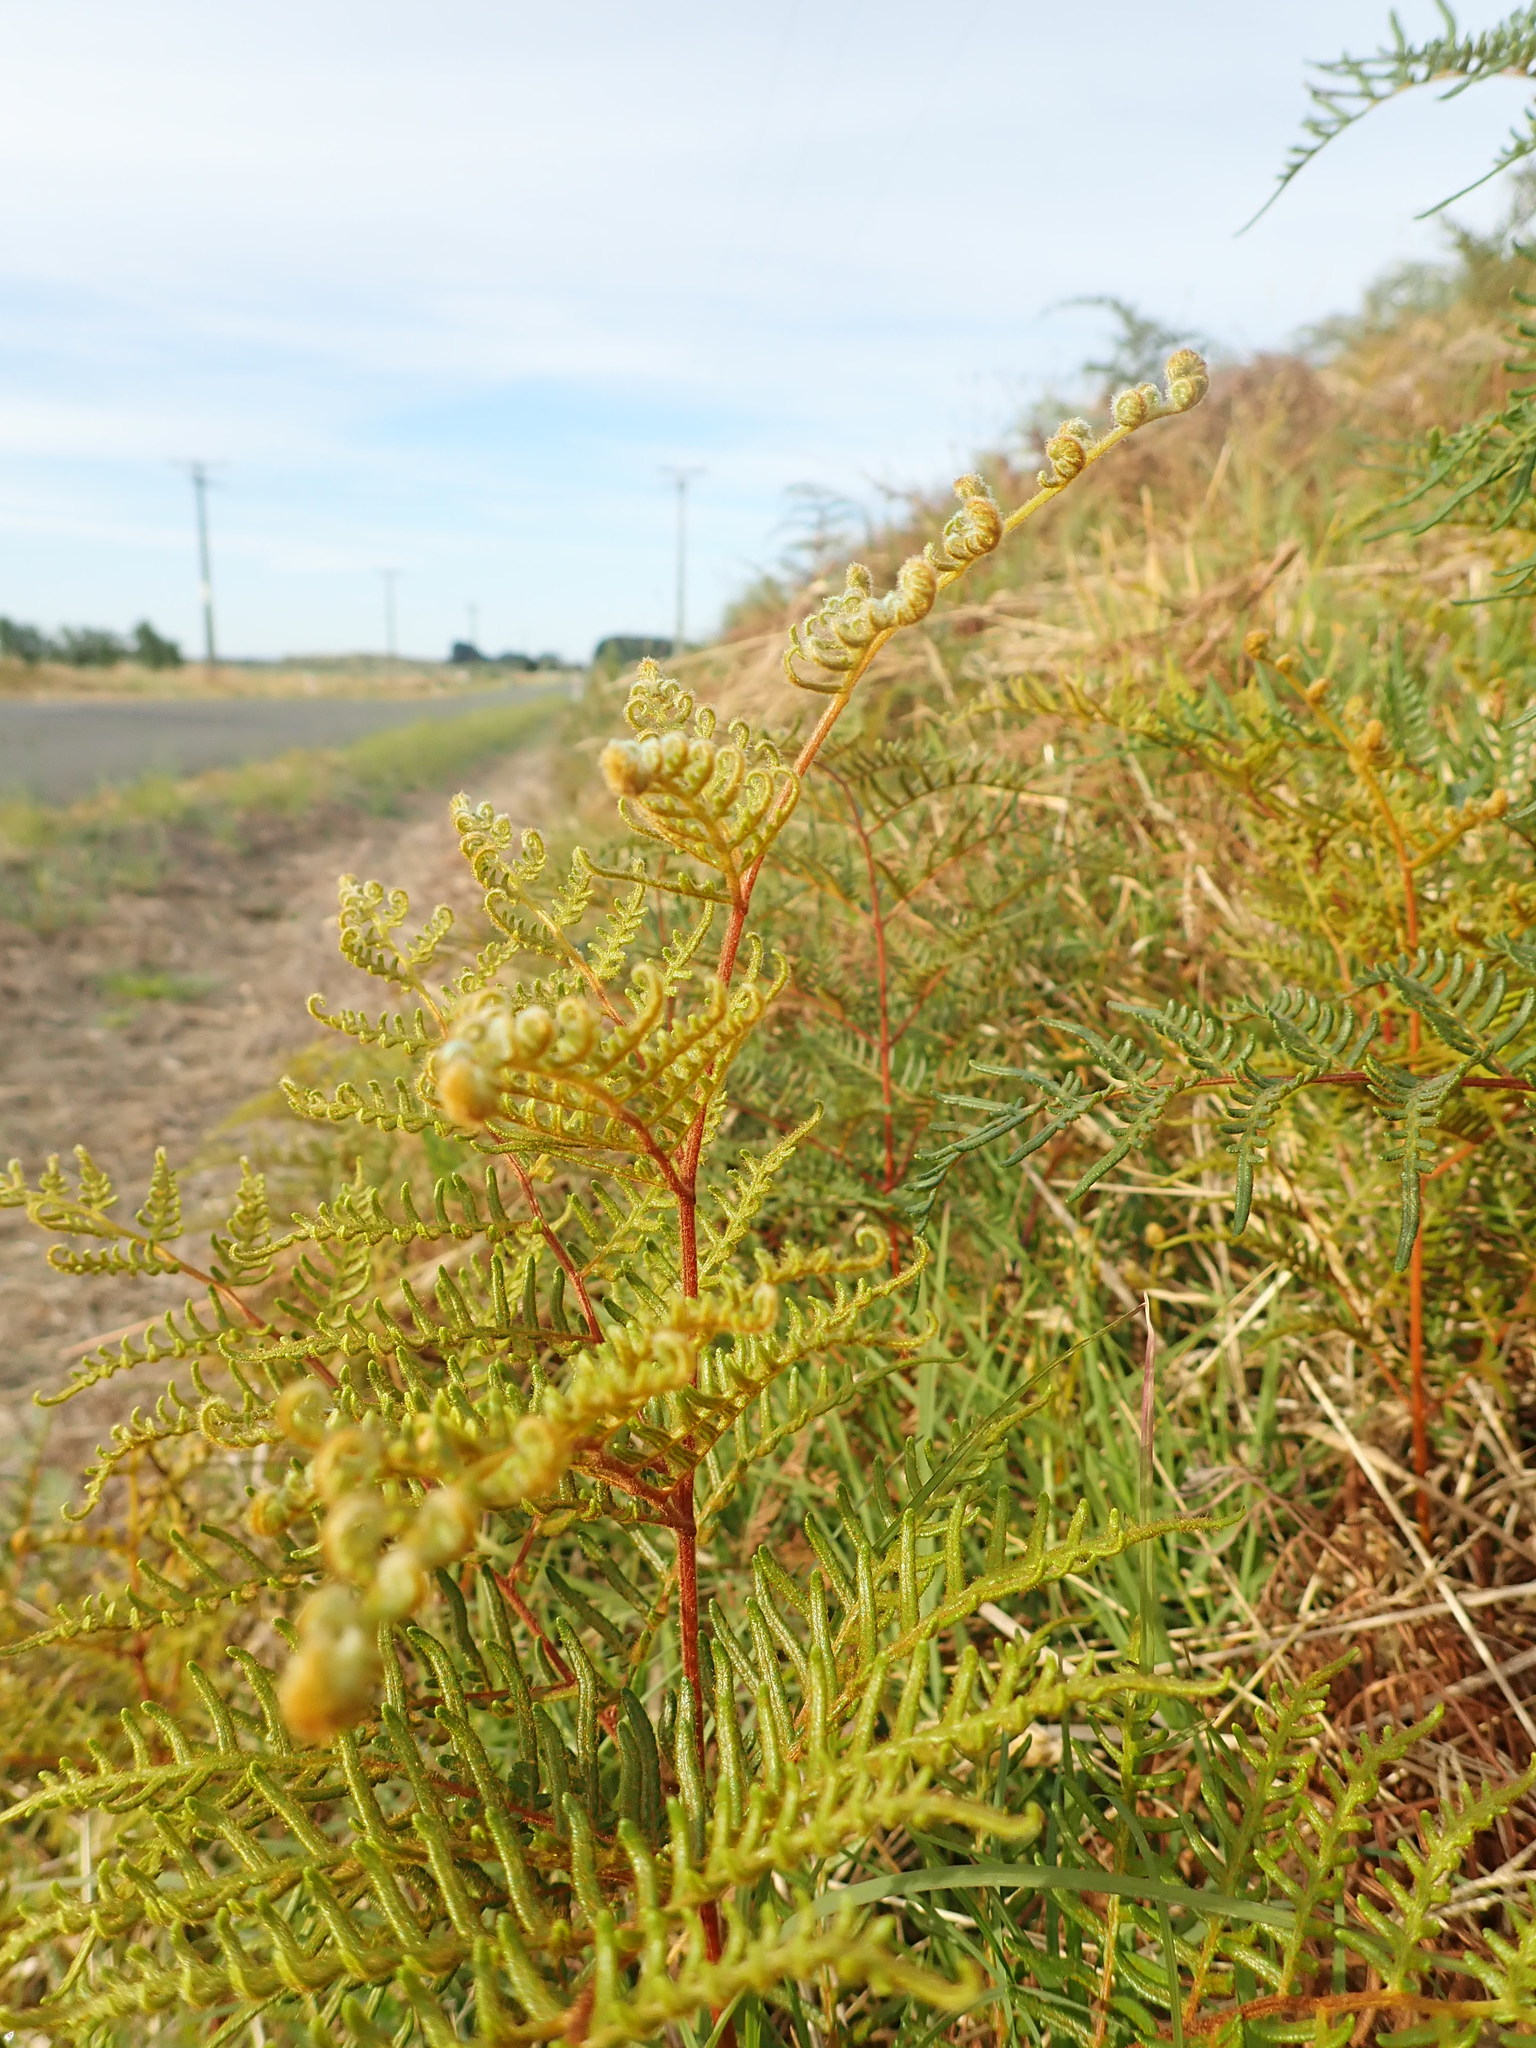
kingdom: Plantae
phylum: Tracheophyta
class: Polypodiopsida
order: Polypodiales
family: Dennstaedtiaceae
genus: Pteridium
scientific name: Pteridium esculentum
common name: Bracken fern
